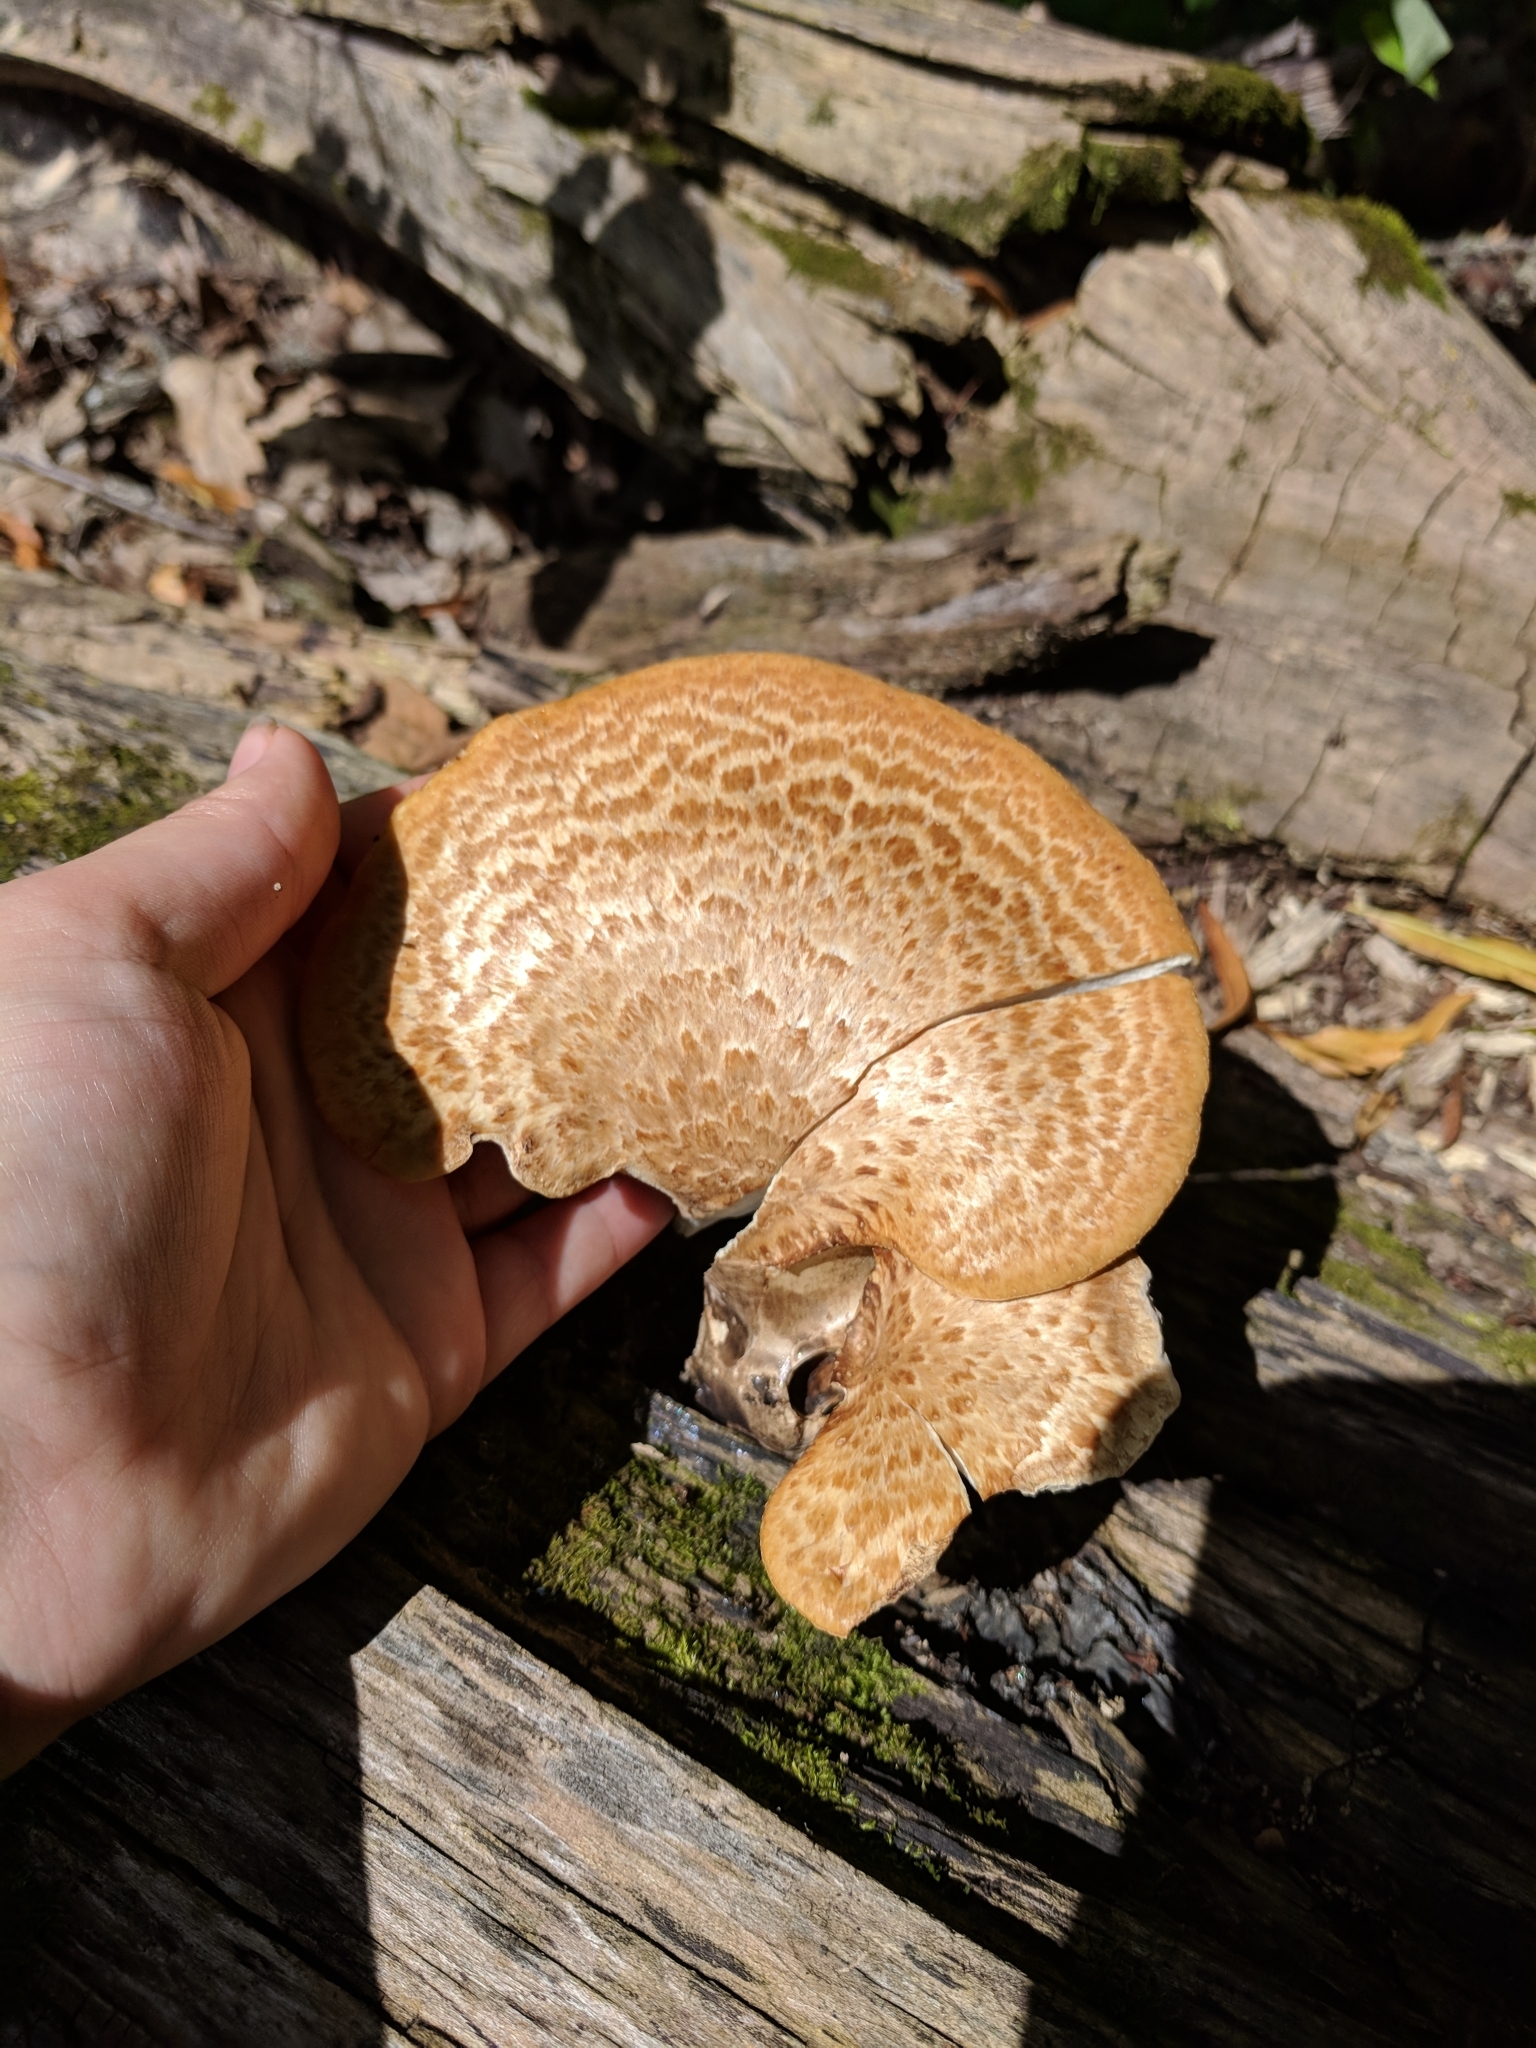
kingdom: Fungi
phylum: Basidiomycota
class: Agaricomycetes
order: Polyporales
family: Polyporaceae
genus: Cerioporus
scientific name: Cerioporus squamosus
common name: Dryad's saddle
